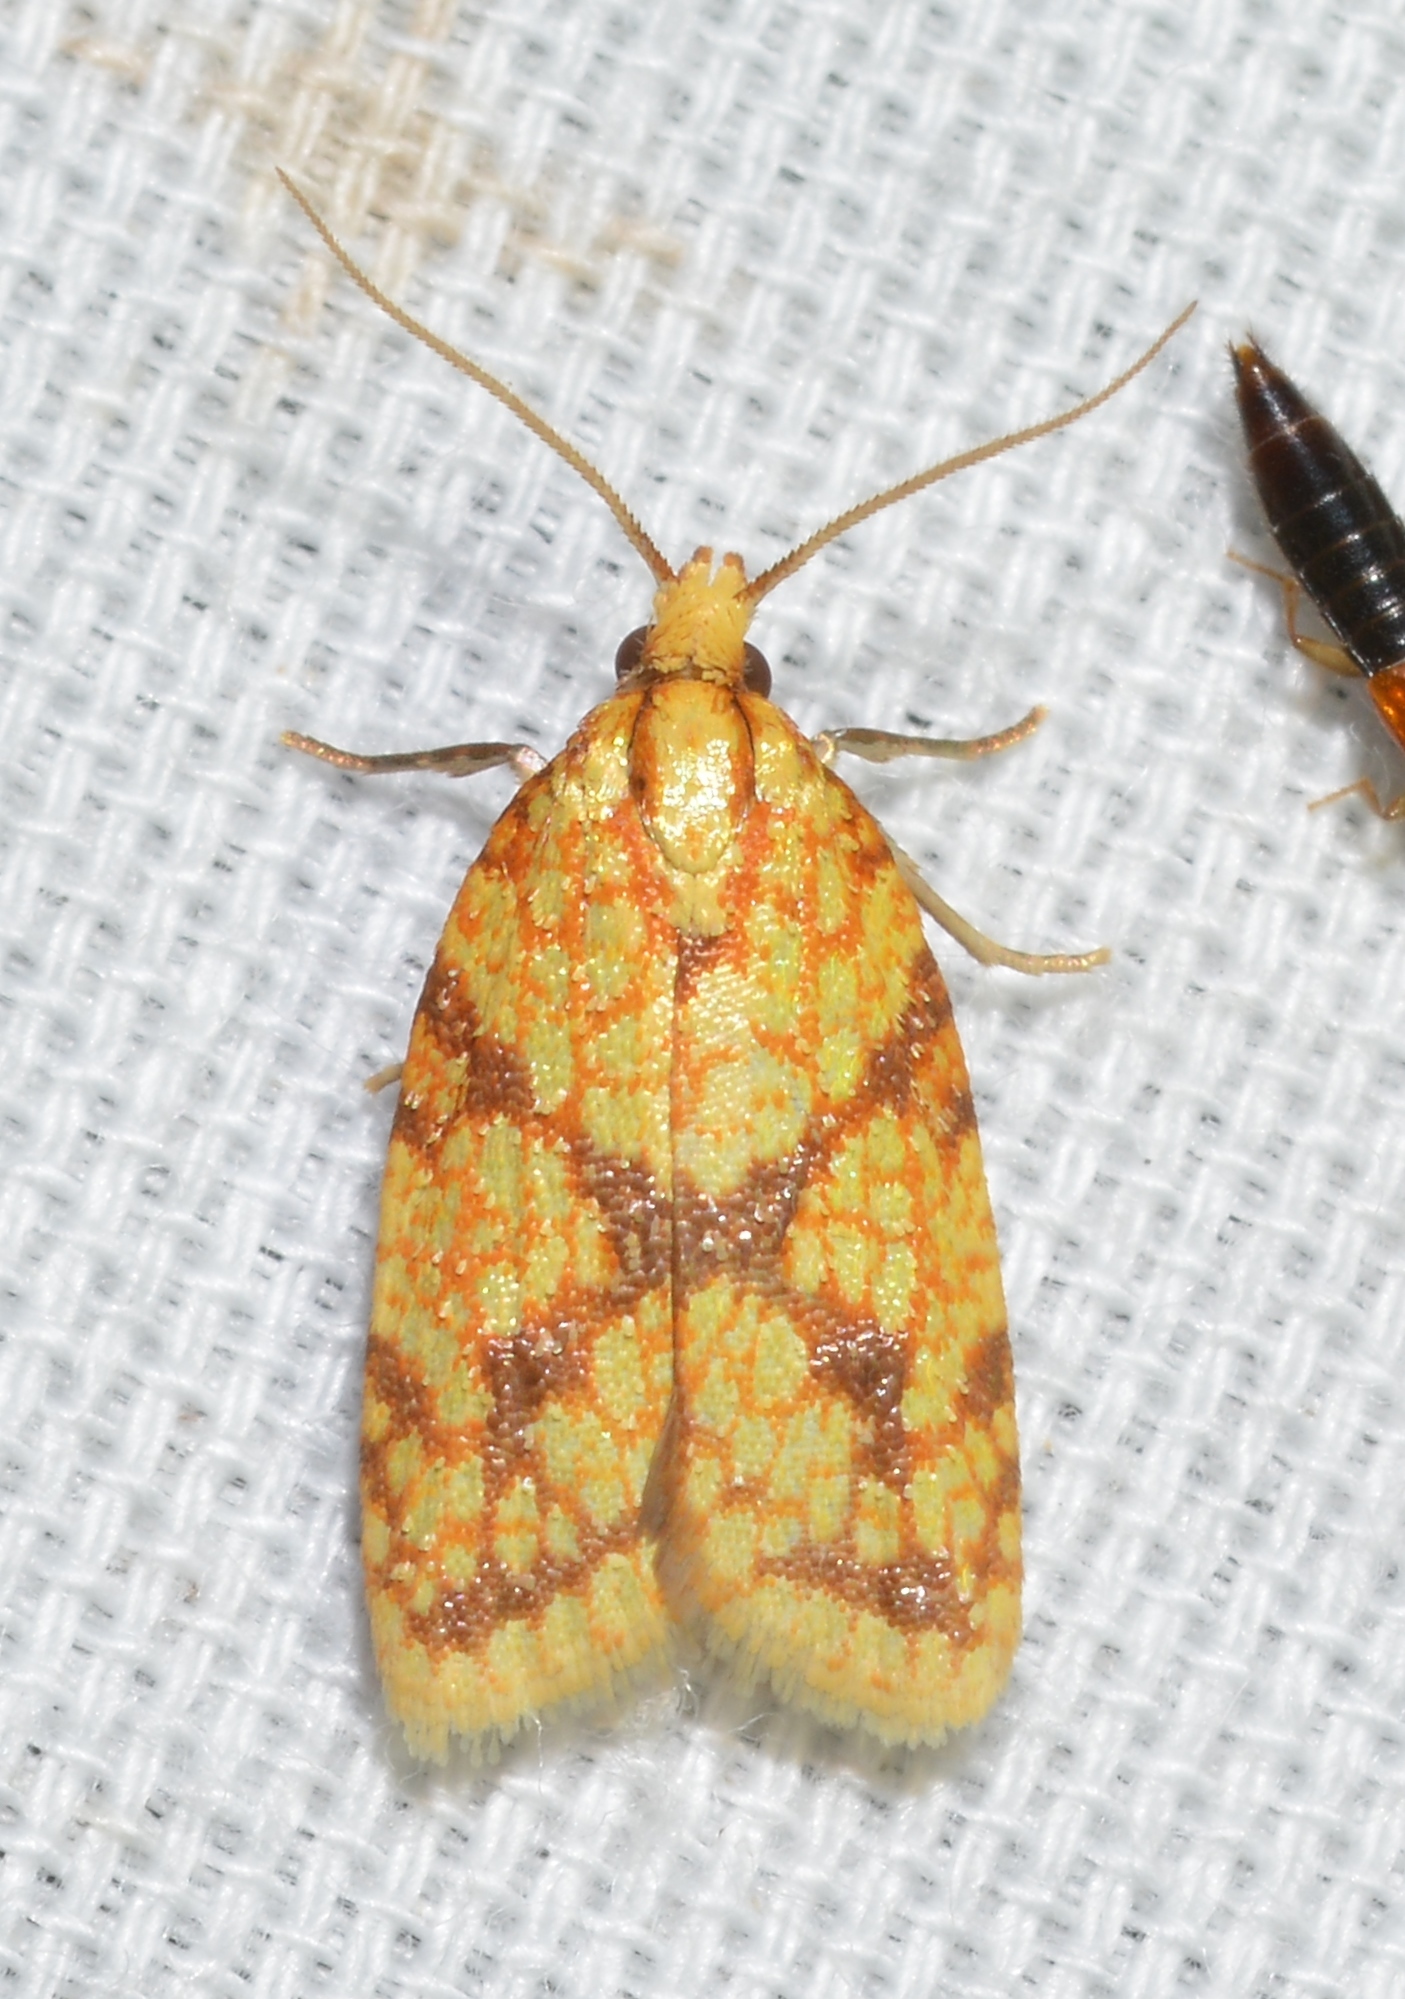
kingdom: Animalia
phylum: Arthropoda
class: Insecta
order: Lepidoptera
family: Tortricidae
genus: Sparganothis
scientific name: Sparganothis sulfureana
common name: Sparganothis fruitworm moth
